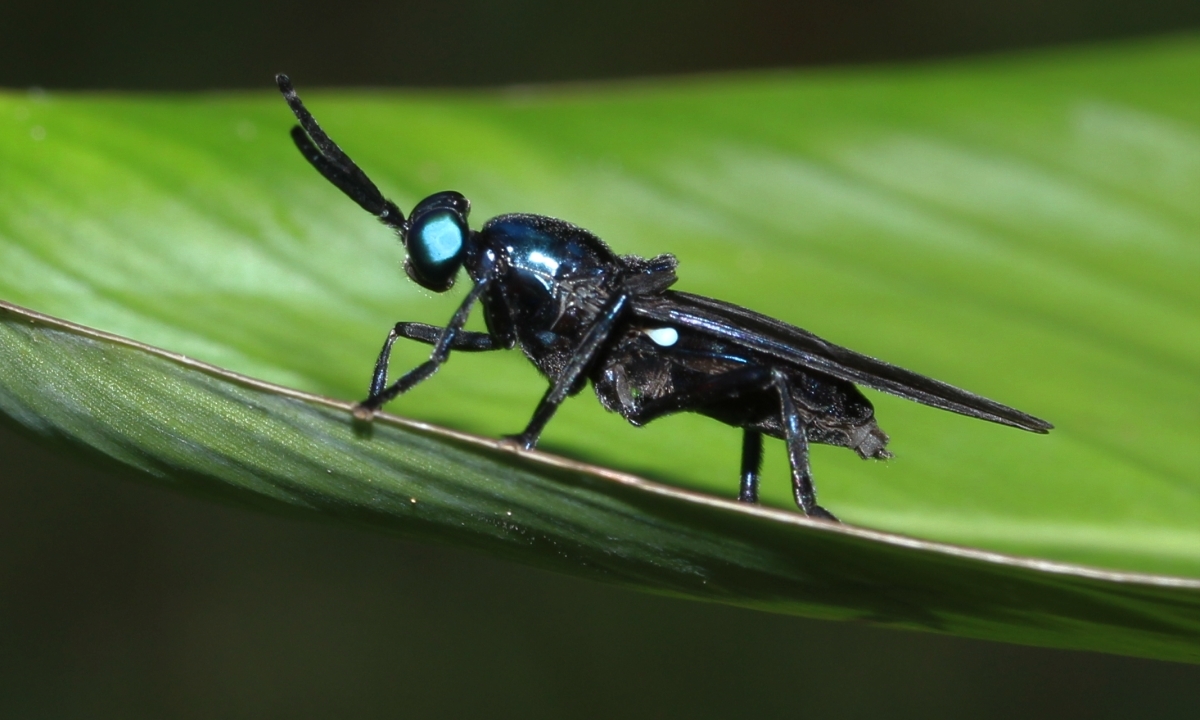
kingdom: Animalia
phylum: Arthropoda
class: Insecta
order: Diptera
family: Stratiomyidae
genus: Cyphomyia
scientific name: Cyphomyia unicolor
